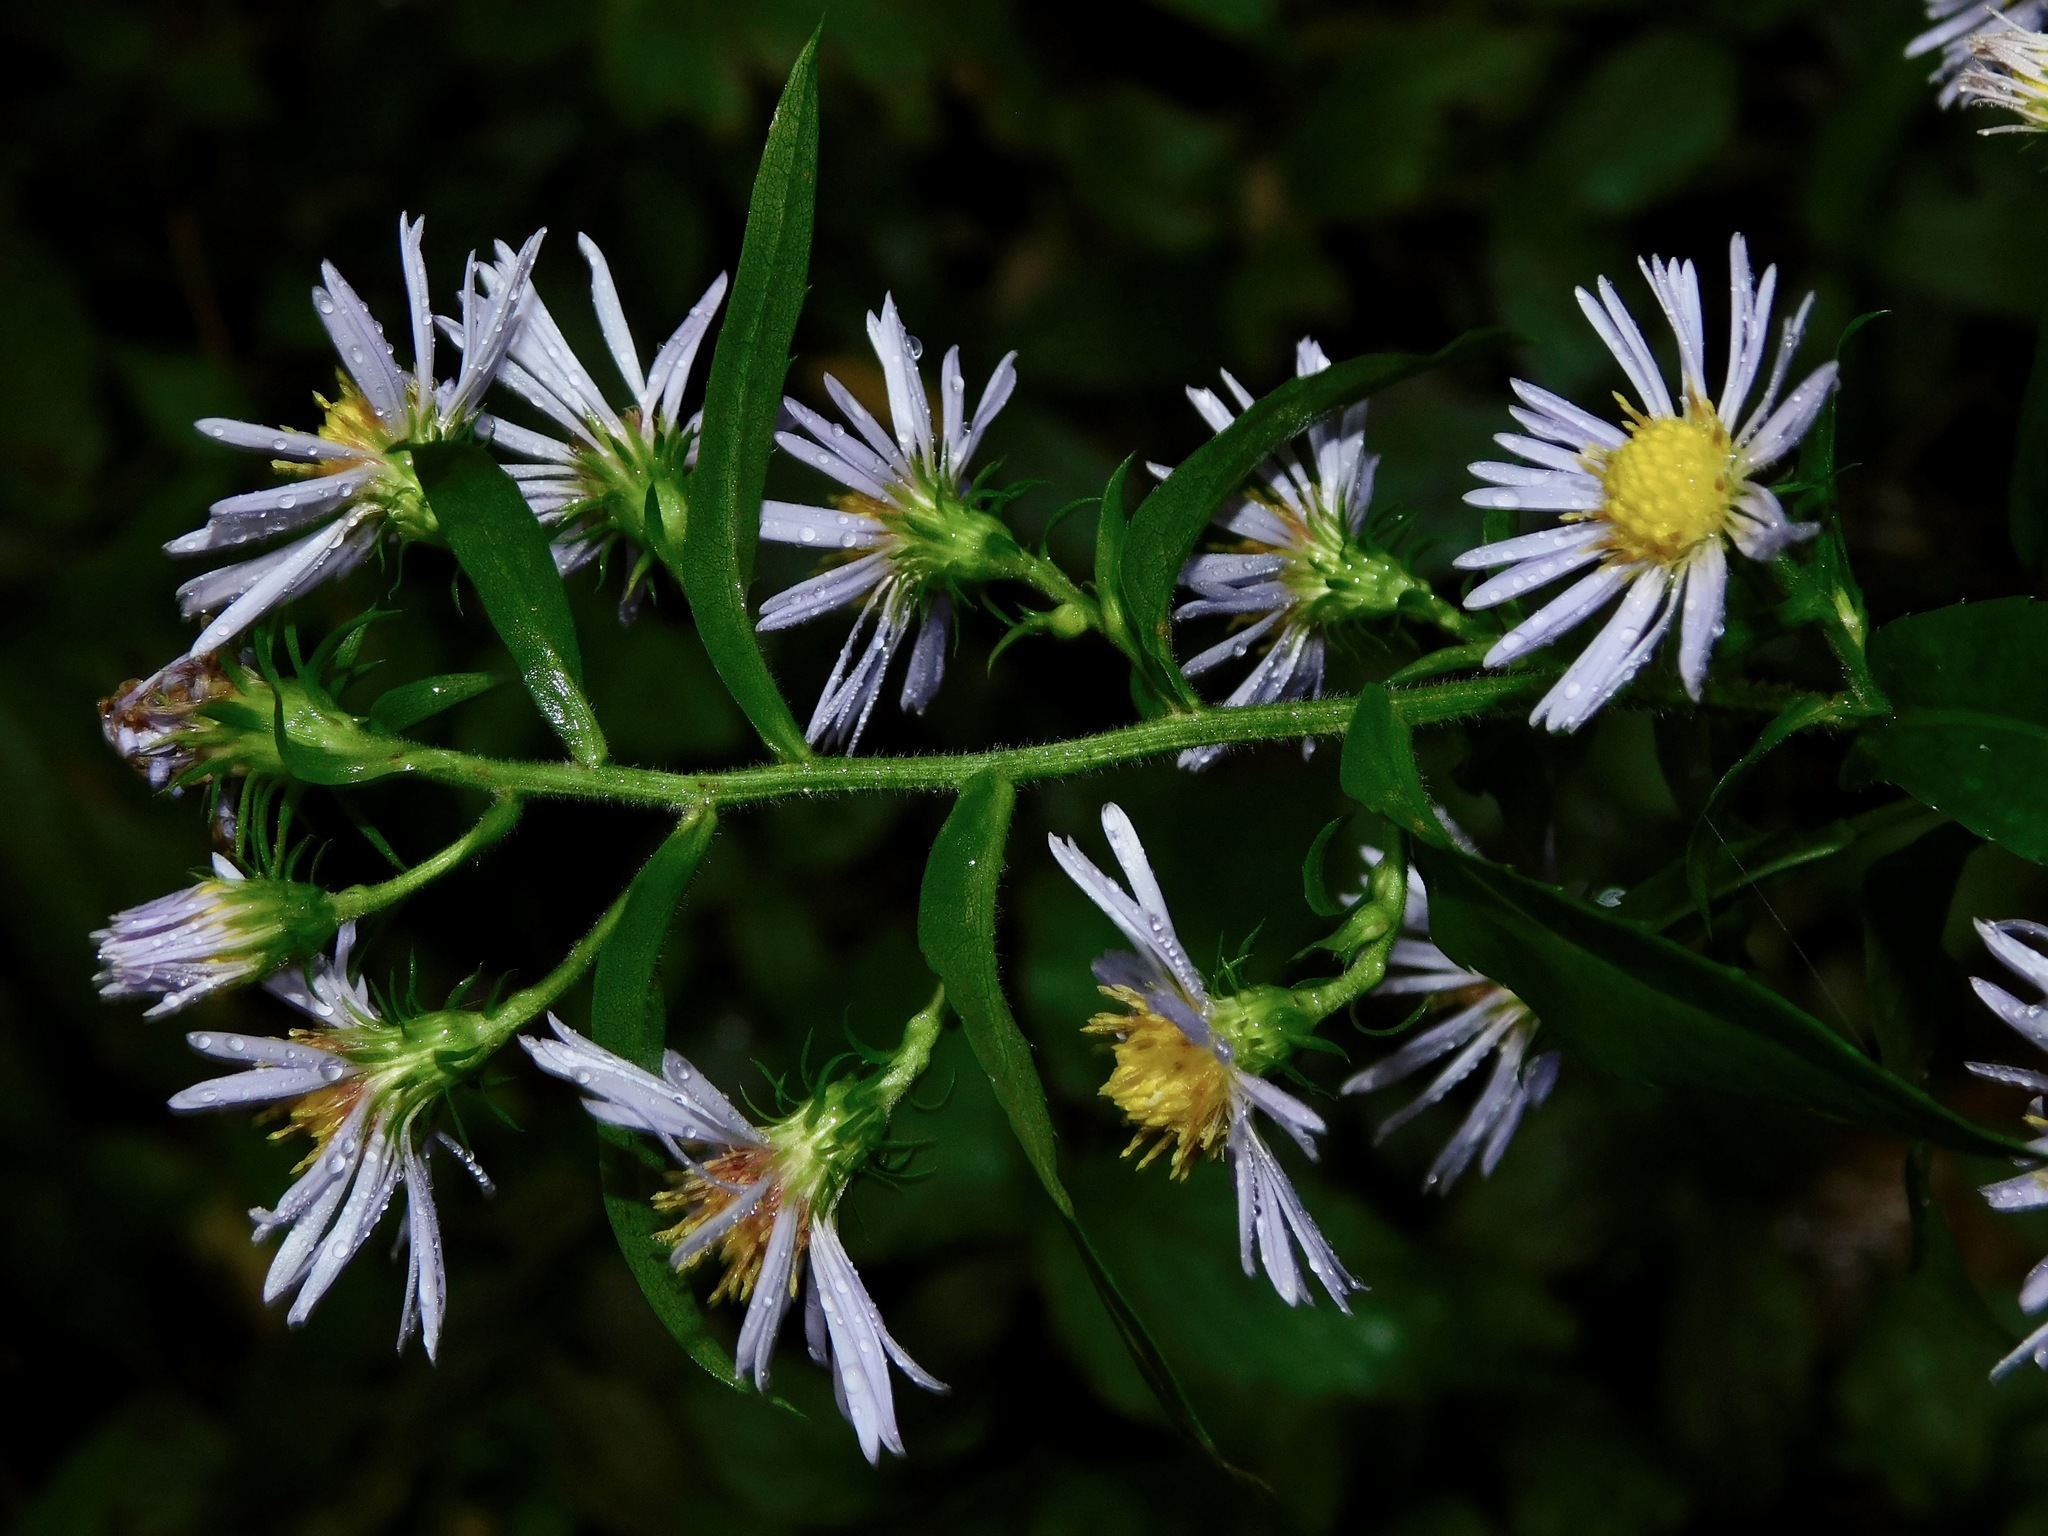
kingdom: Plantae
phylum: Tracheophyta
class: Magnoliopsida
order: Asterales
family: Asteraceae
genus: Symphyotrichum
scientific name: Symphyotrichum puniceum
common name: Bog aster
